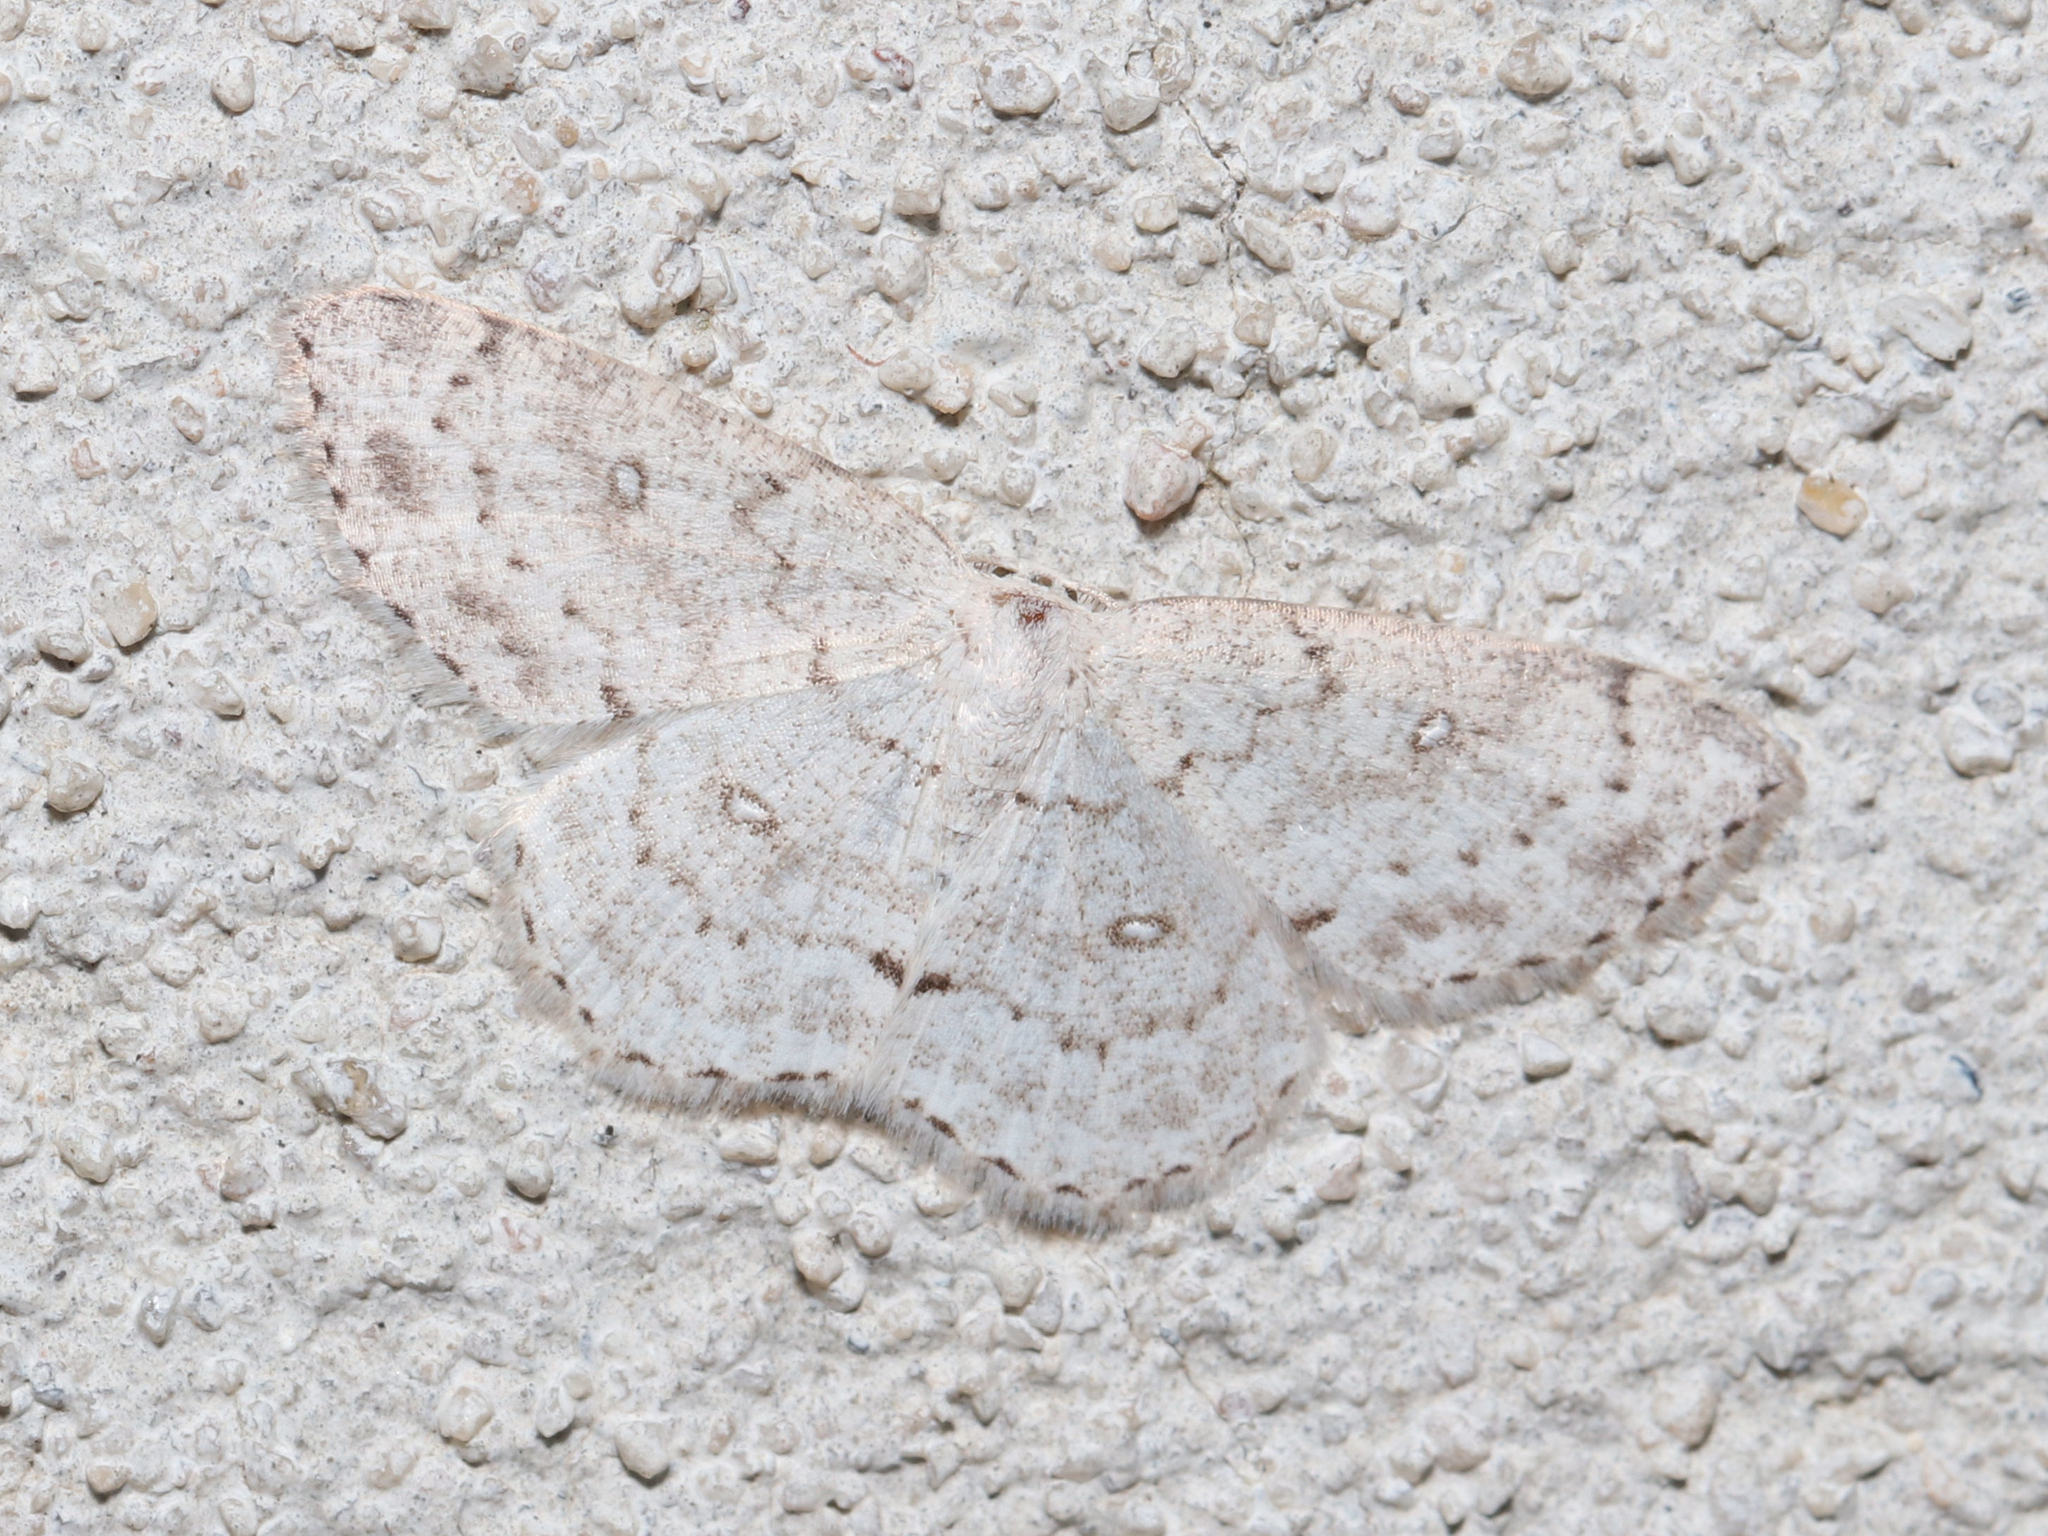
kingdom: Animalia
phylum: Arthropoda
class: Insecta
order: Lepidoptera
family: Geometridae
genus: Cyclophora
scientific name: Cyclophora pendulinaria
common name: Sweet fern geometer
